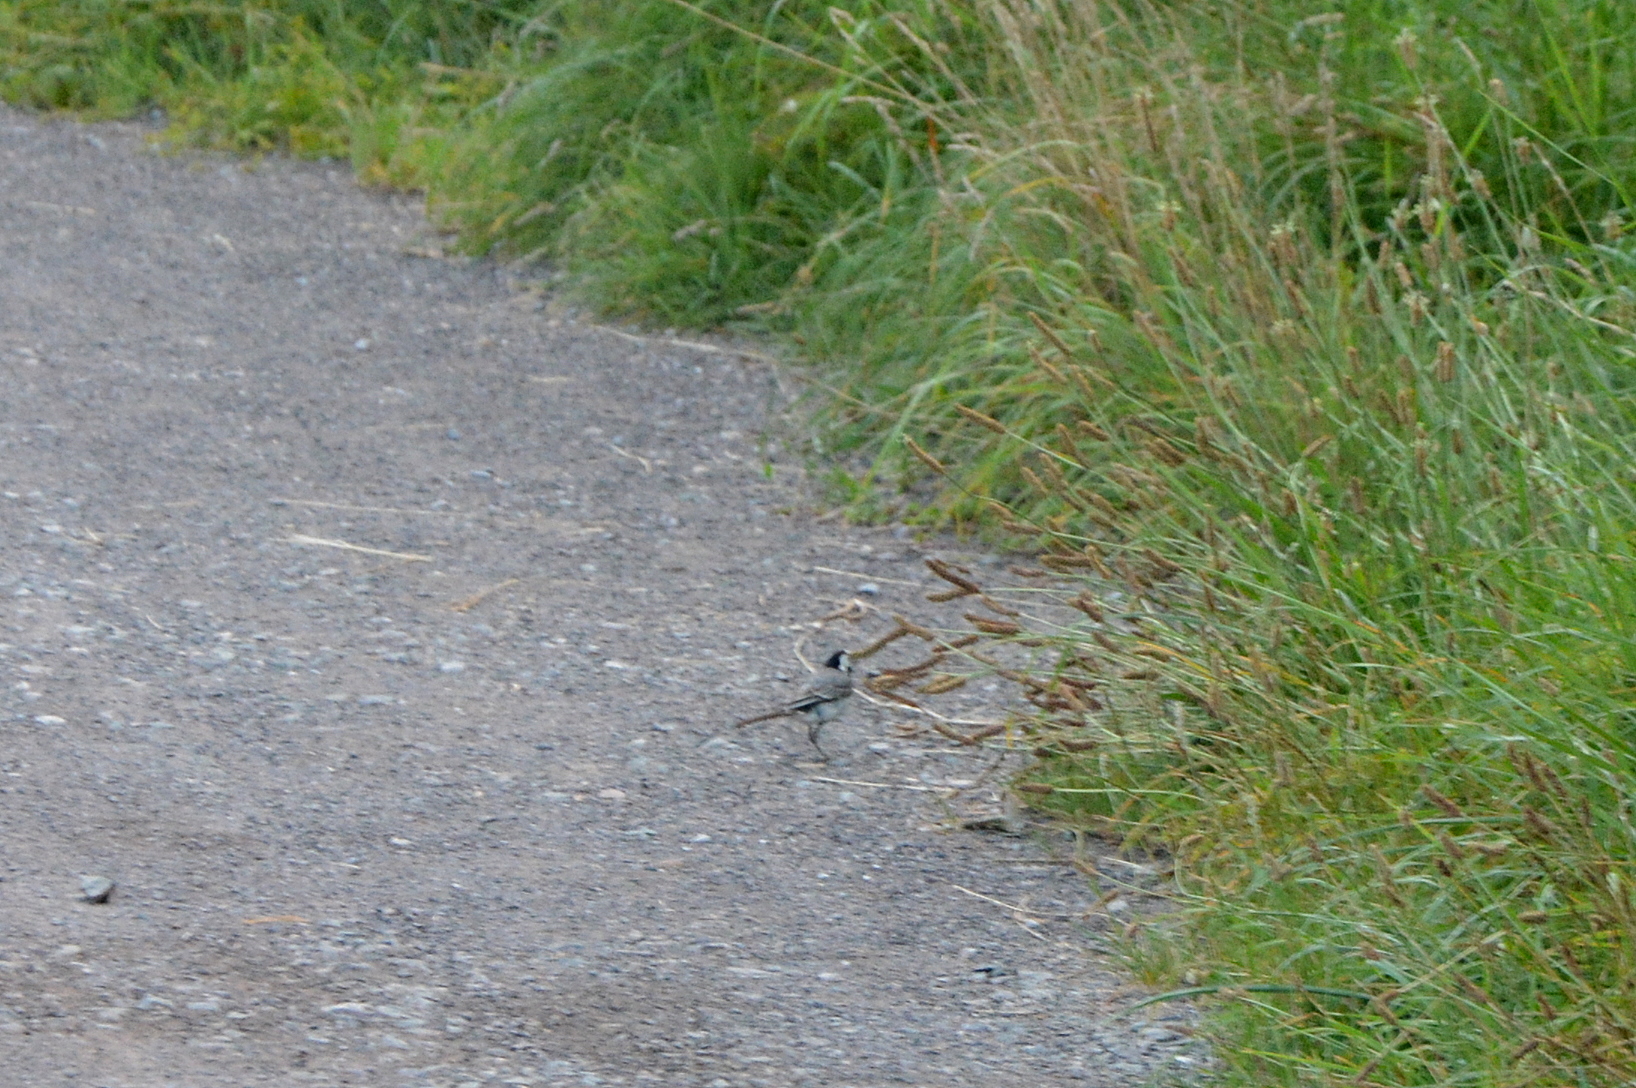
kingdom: Animalia
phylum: Chordata
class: Aves
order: Passeriformes
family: Motacillidae
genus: Motacilla
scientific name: Motacilla alba
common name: White wagtail
